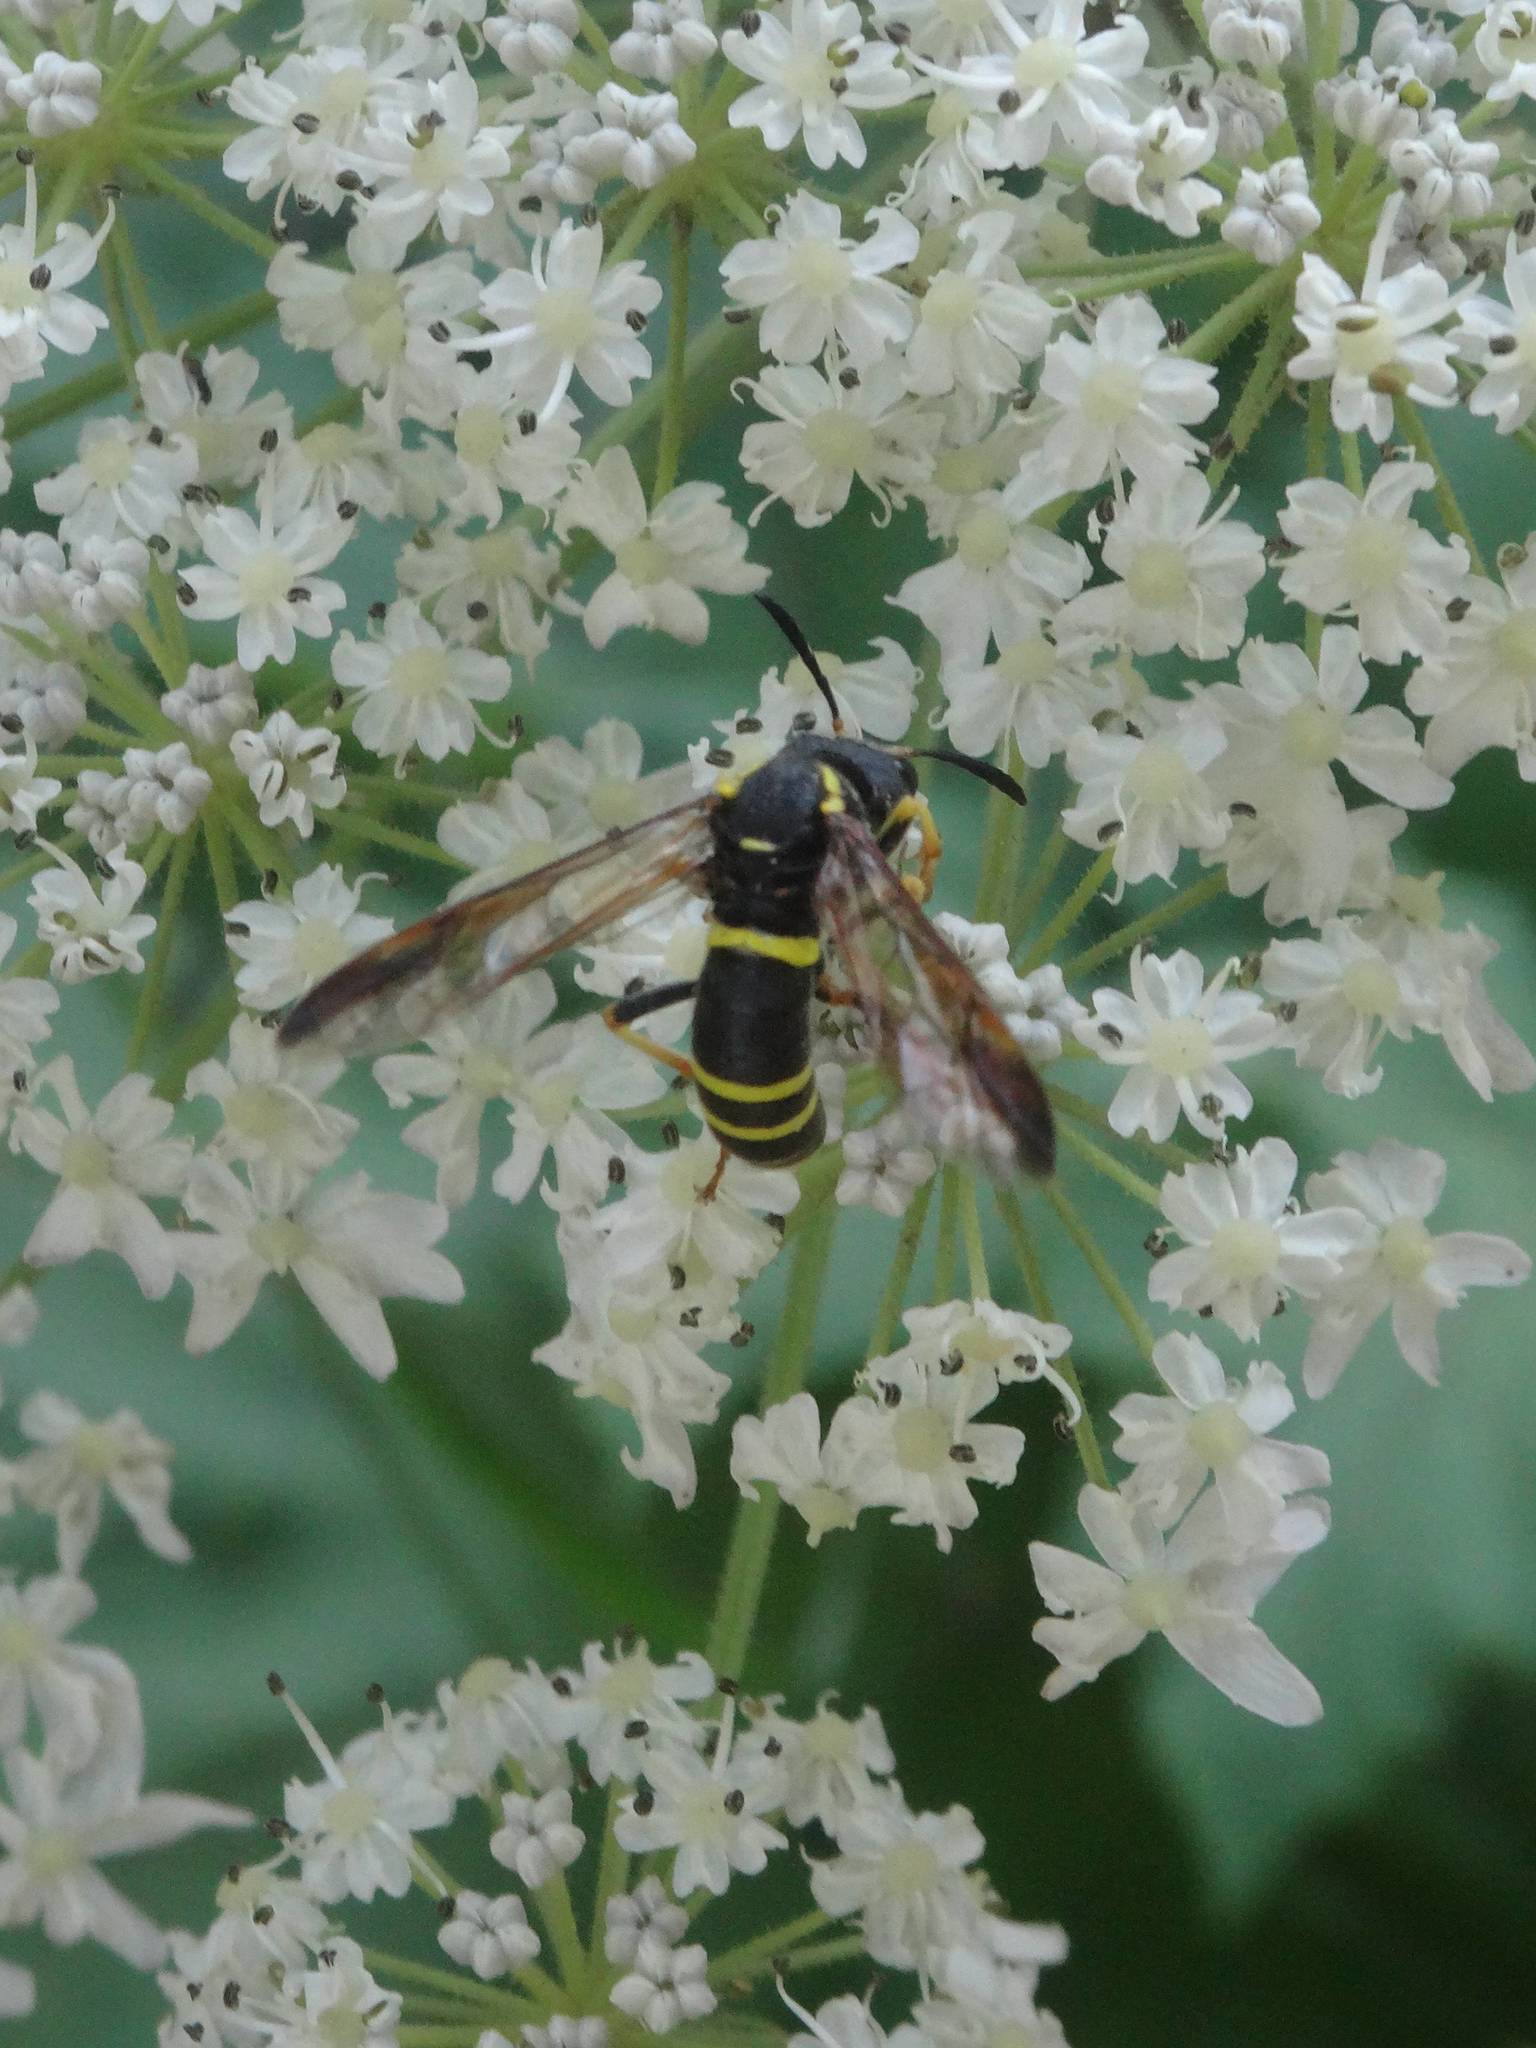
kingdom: Animalia
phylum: Arthropoda
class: Insecta
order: Hymenoptera
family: Tenthredinidae
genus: Tenthredo
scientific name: Tenthredo vespa
